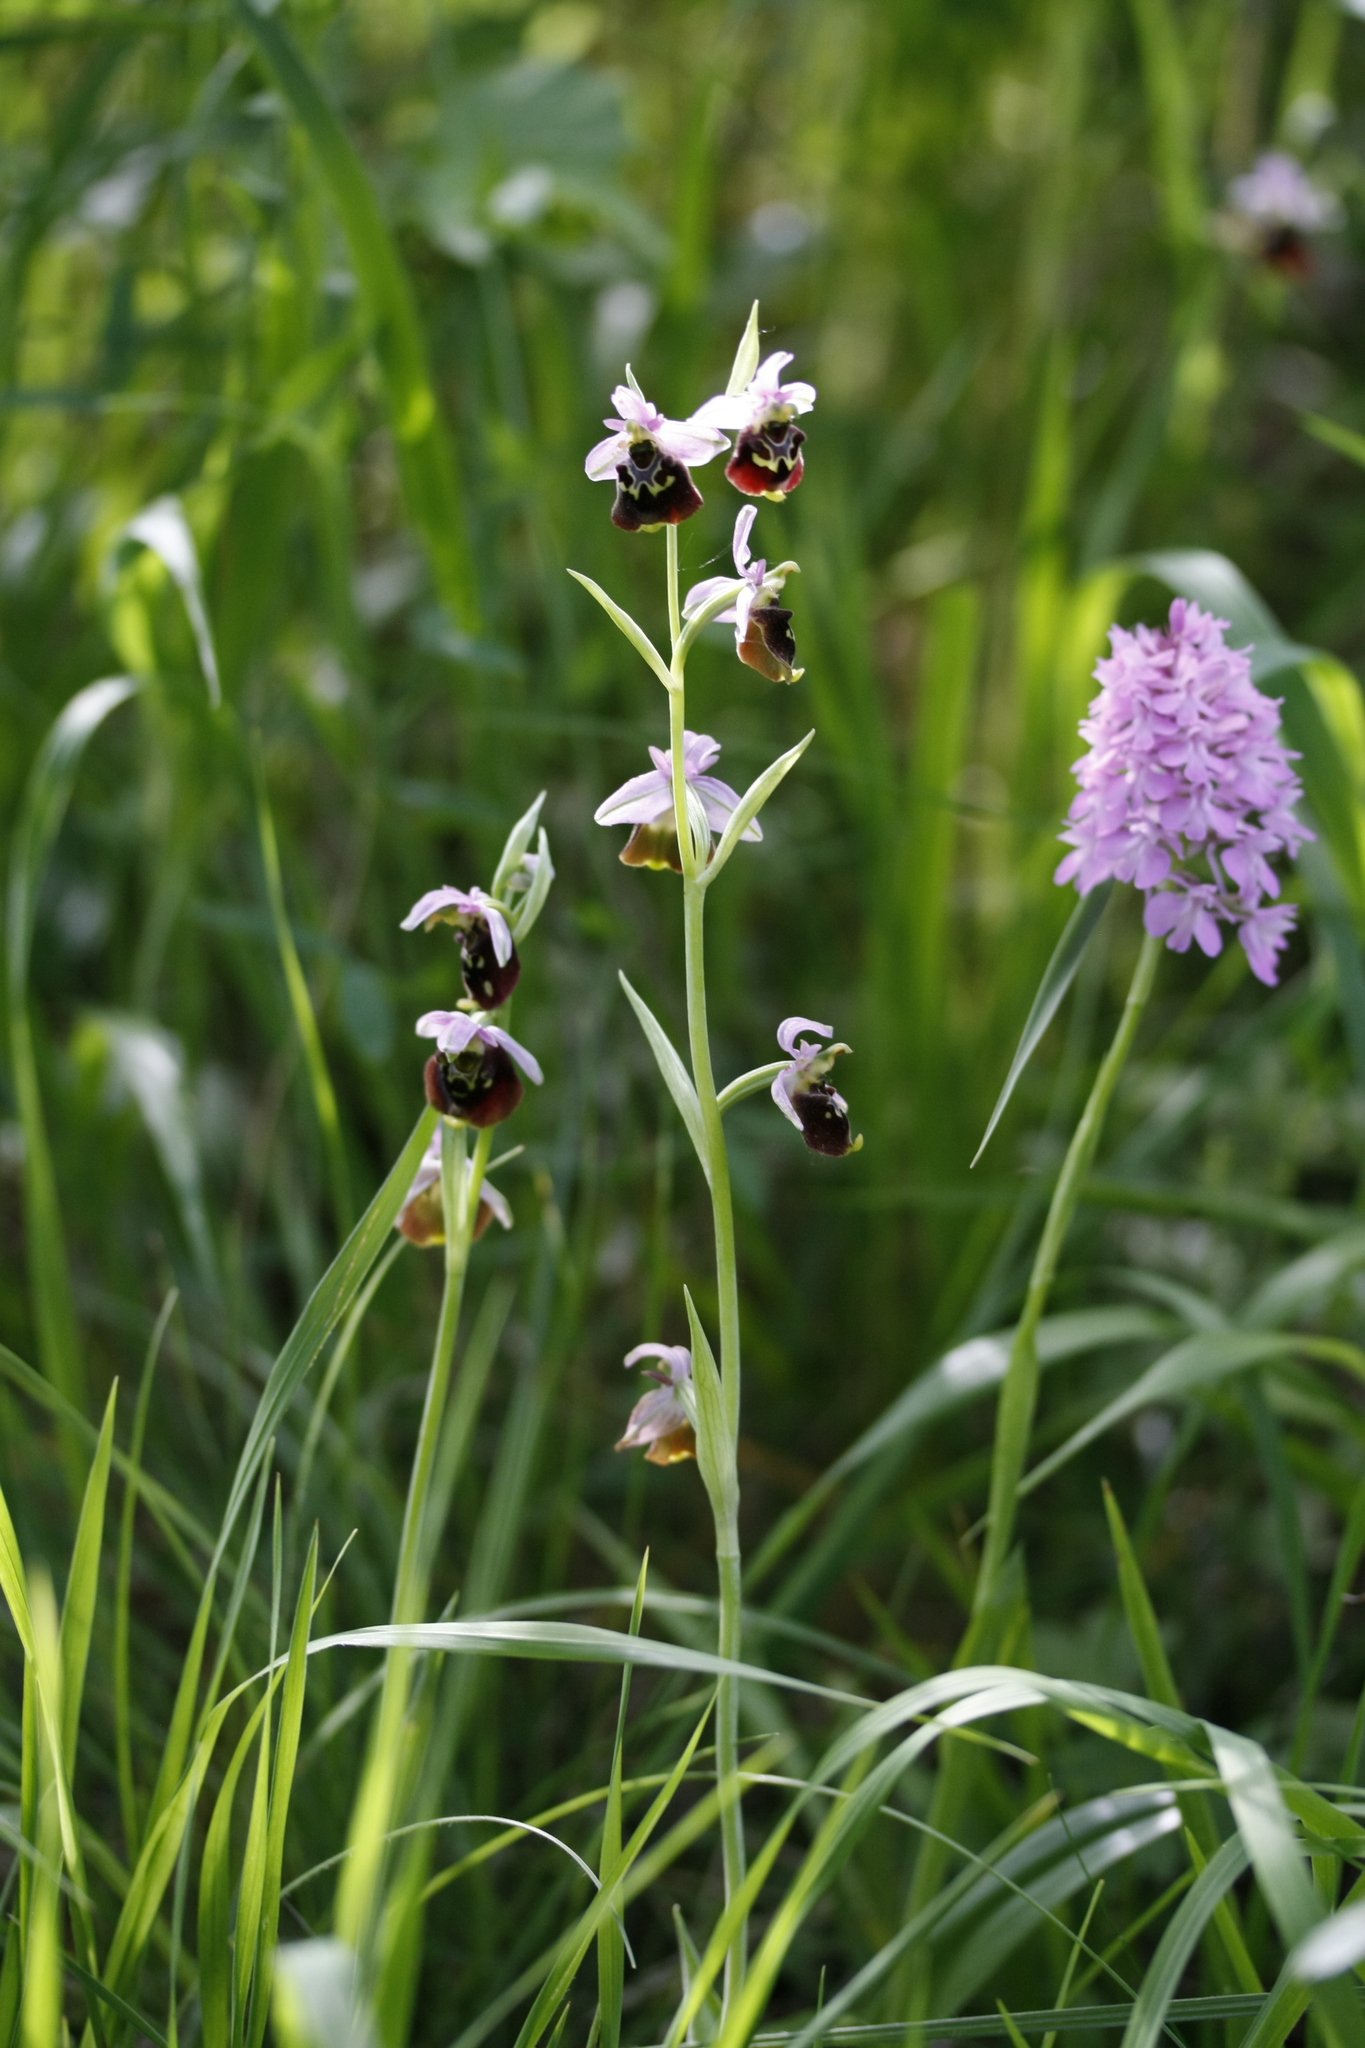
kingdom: Plantae
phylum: Tracheophyta
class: Liliopsida
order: Asparagales
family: Orchidaceae
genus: Ophrys
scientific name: Ophrys holosericea
